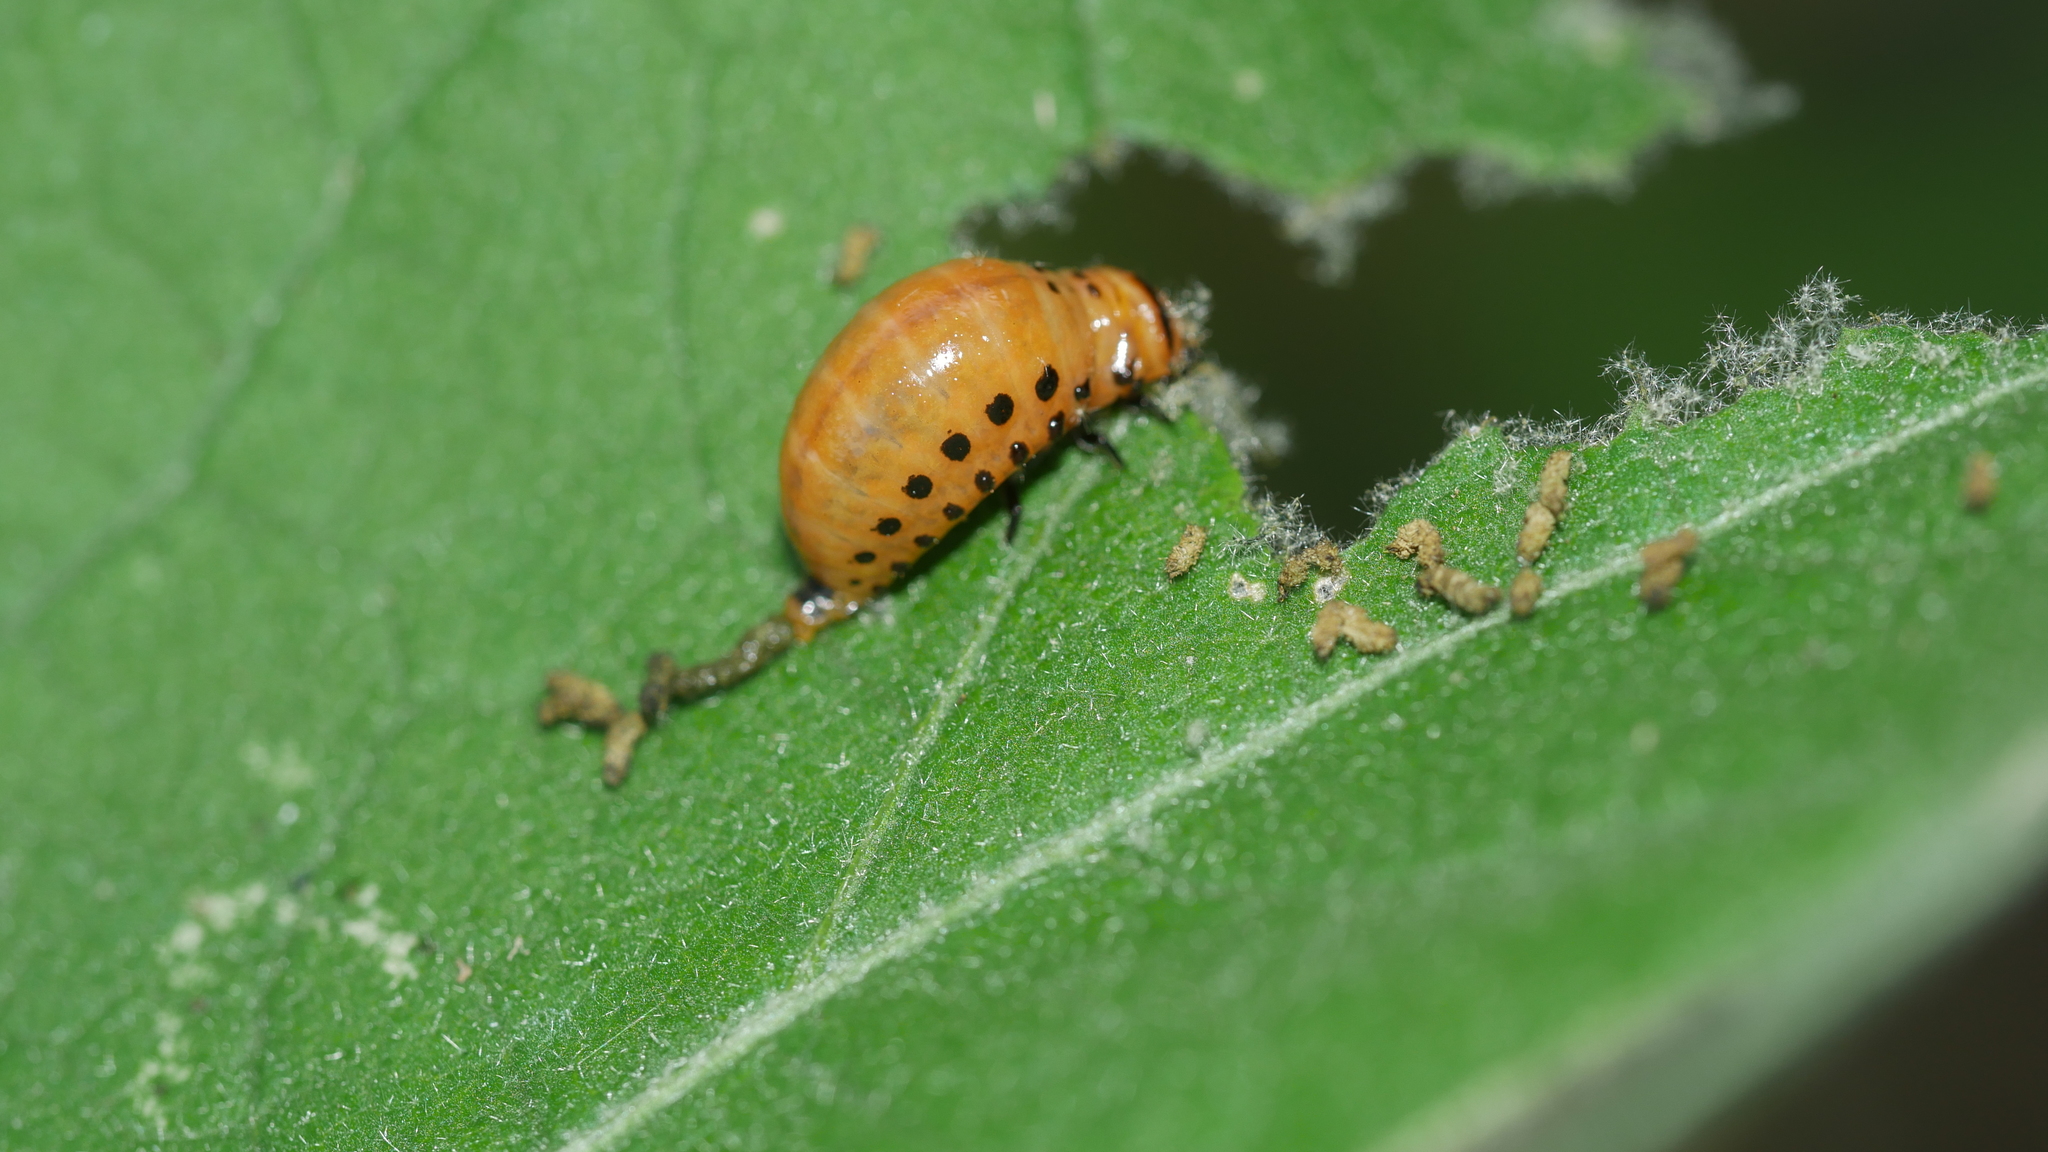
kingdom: Animalia
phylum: Arthropoda
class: Insecta
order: Coleoptera
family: Chrysomelidae
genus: Leptinotarsa
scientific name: Leptinotarsa decemlineata
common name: Colorado potato beetle
